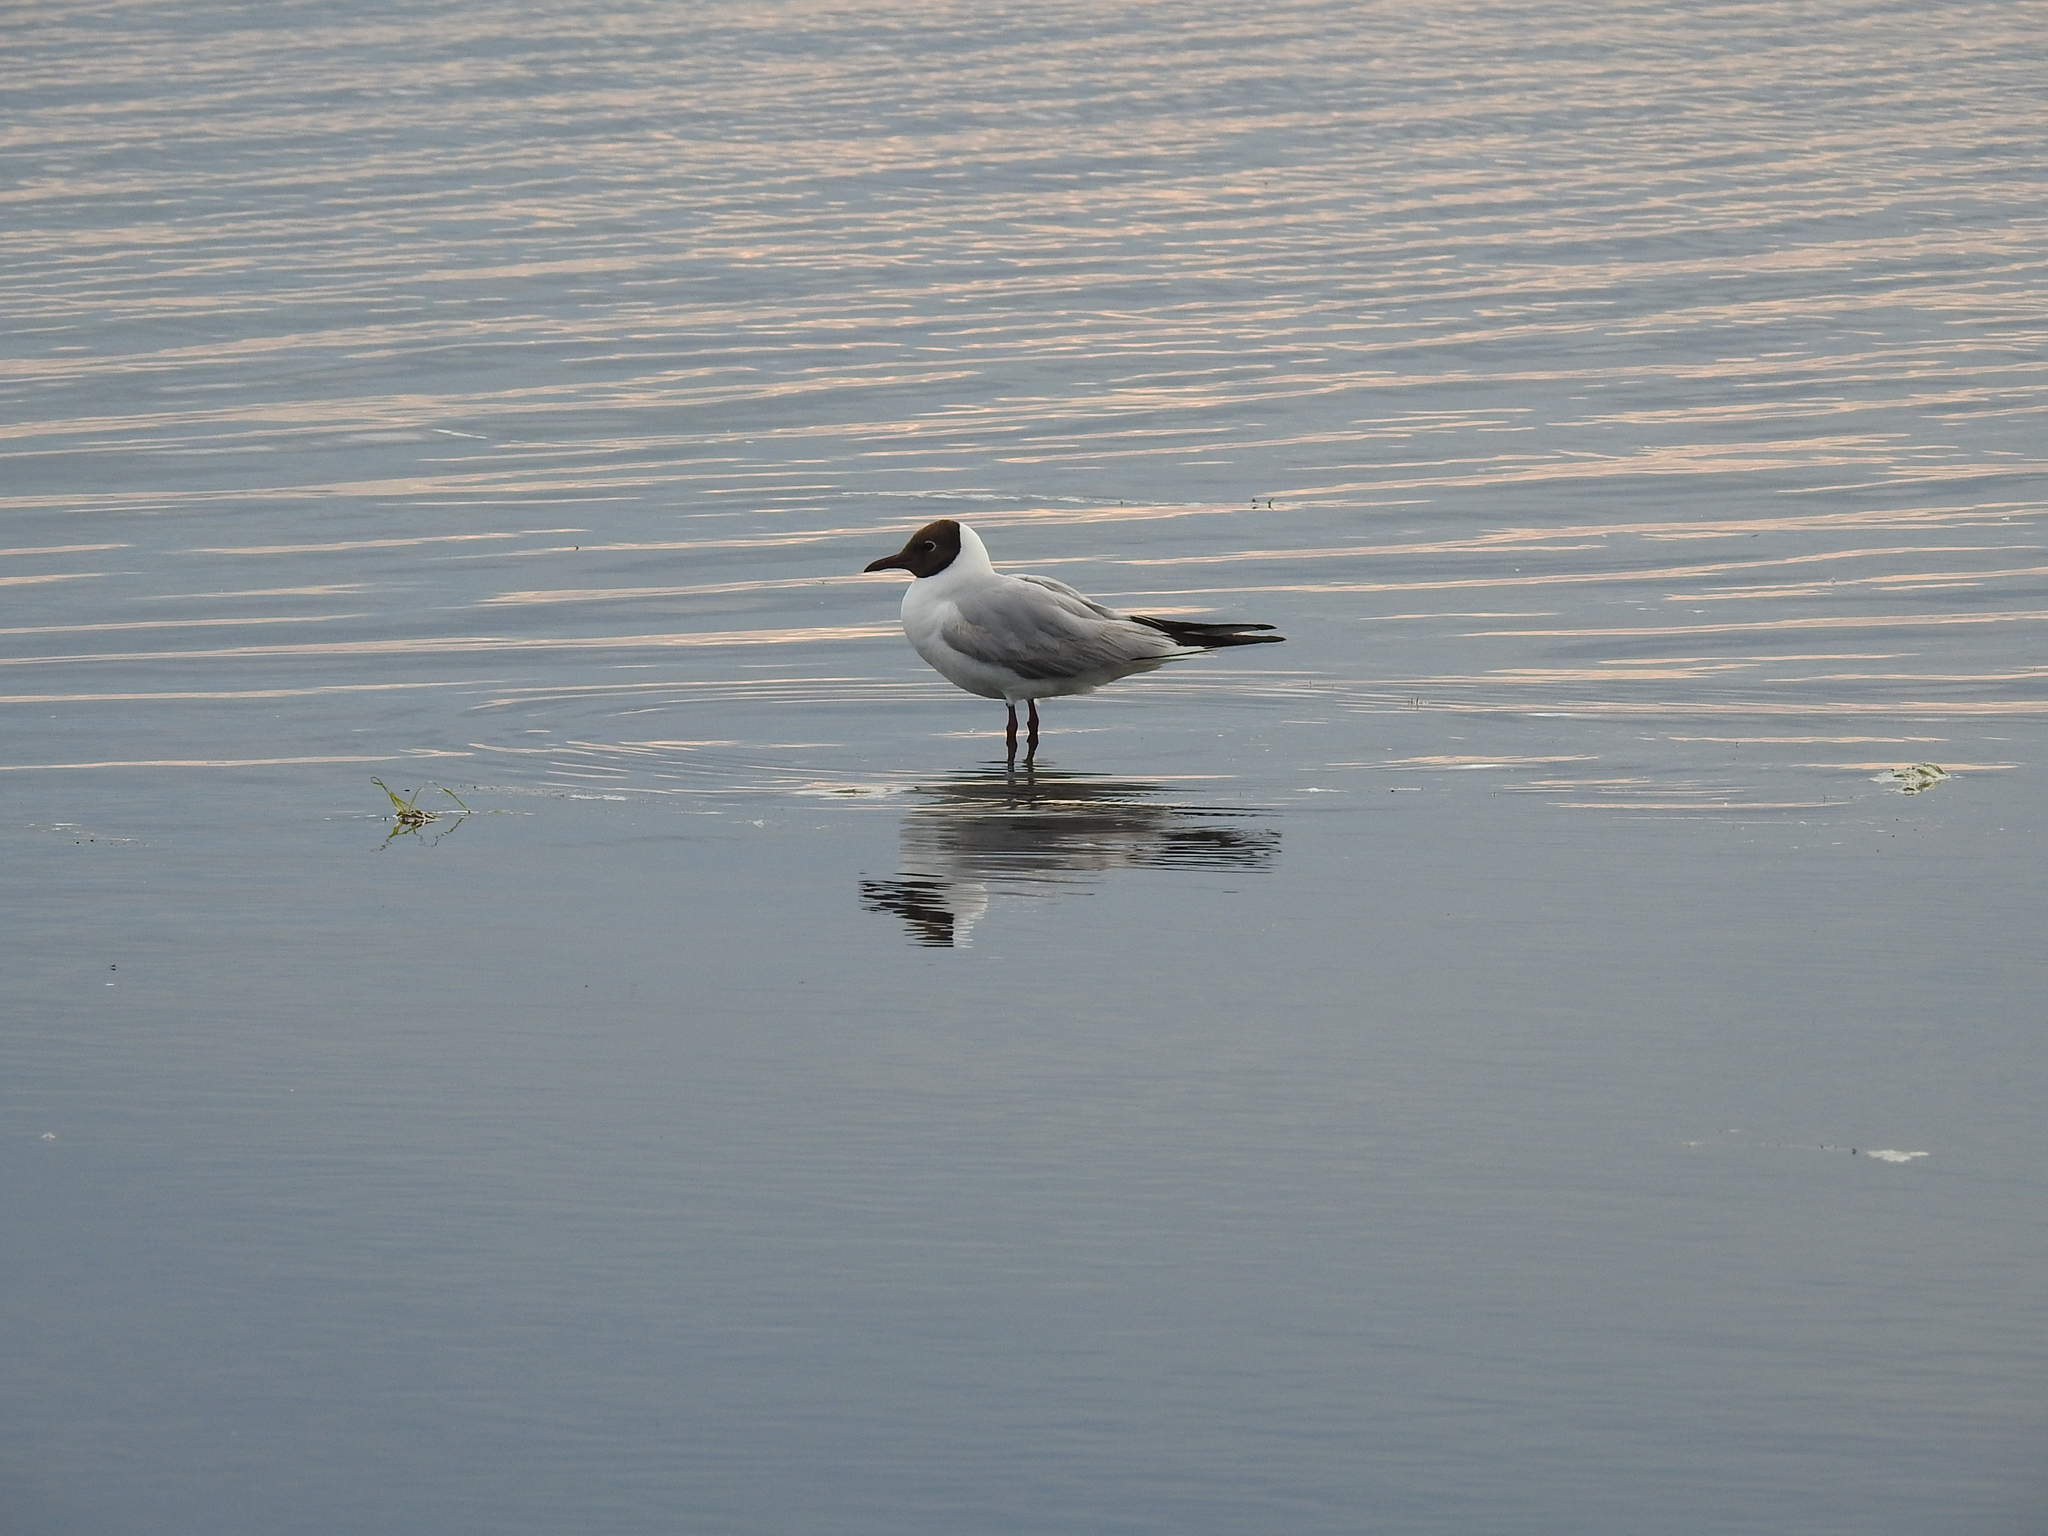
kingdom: Animalia
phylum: Chordata
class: Aves
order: Charadriiformes
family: Laridae
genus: Chroicocephalus
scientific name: Chroicocephalus ridibundus
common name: Black-headed gull
